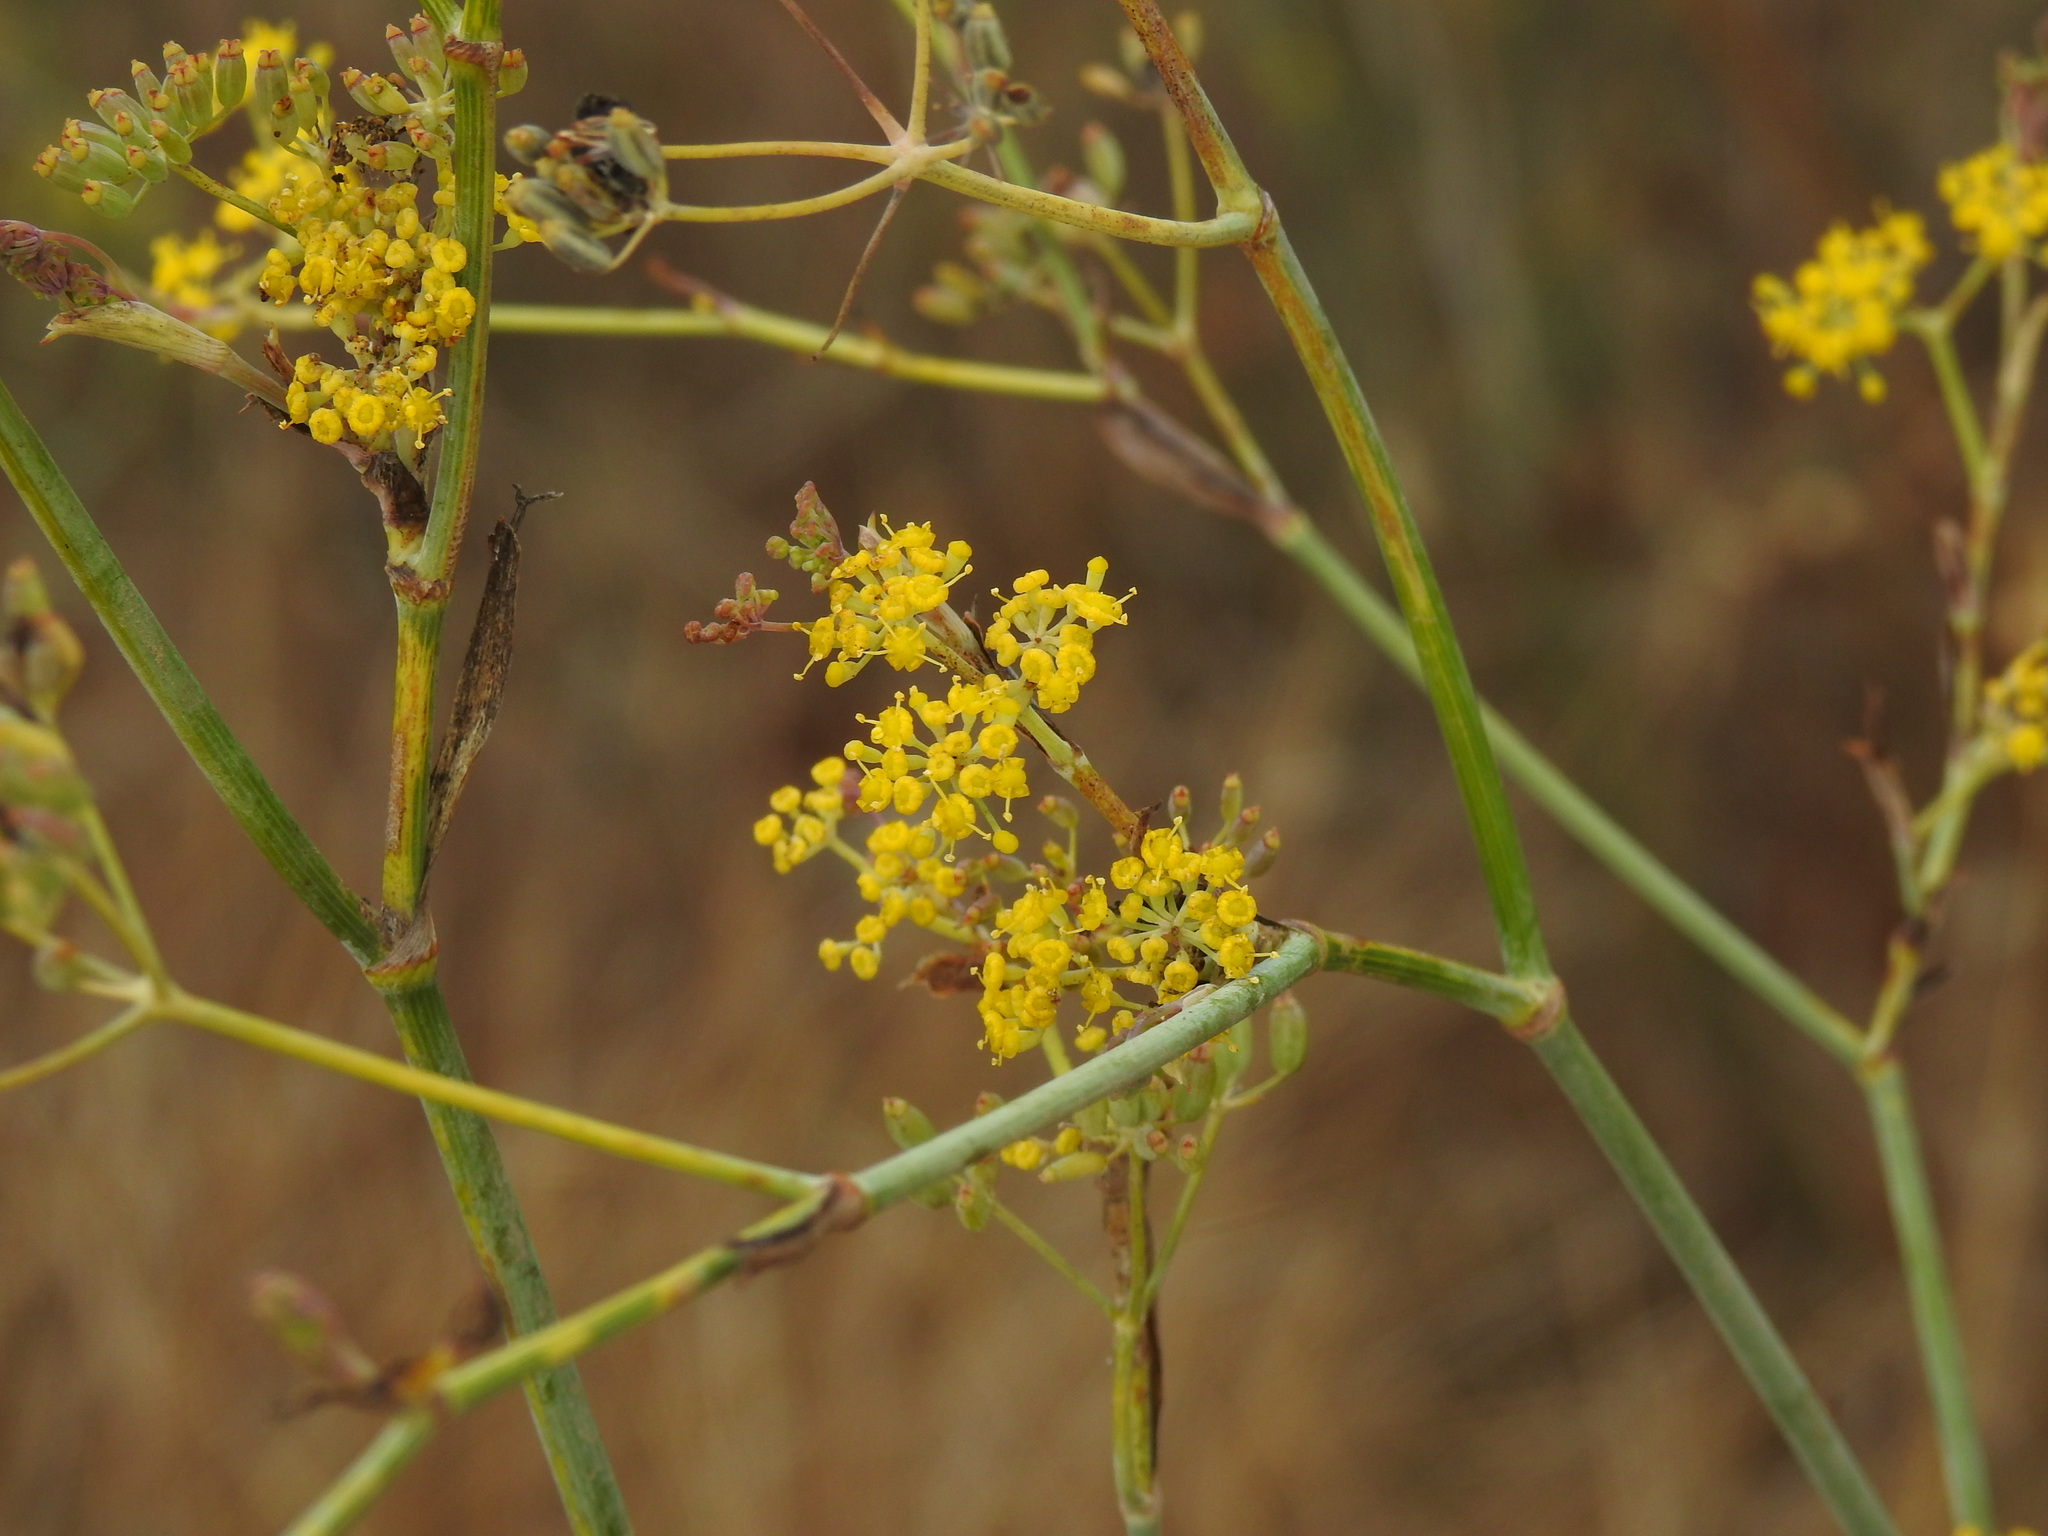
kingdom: Plantae
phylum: Tracheophyta
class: Magnoliopsida
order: Apiales
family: Apiaceae
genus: Foeniculum
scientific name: Foeniculum vulgare
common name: Fennel
